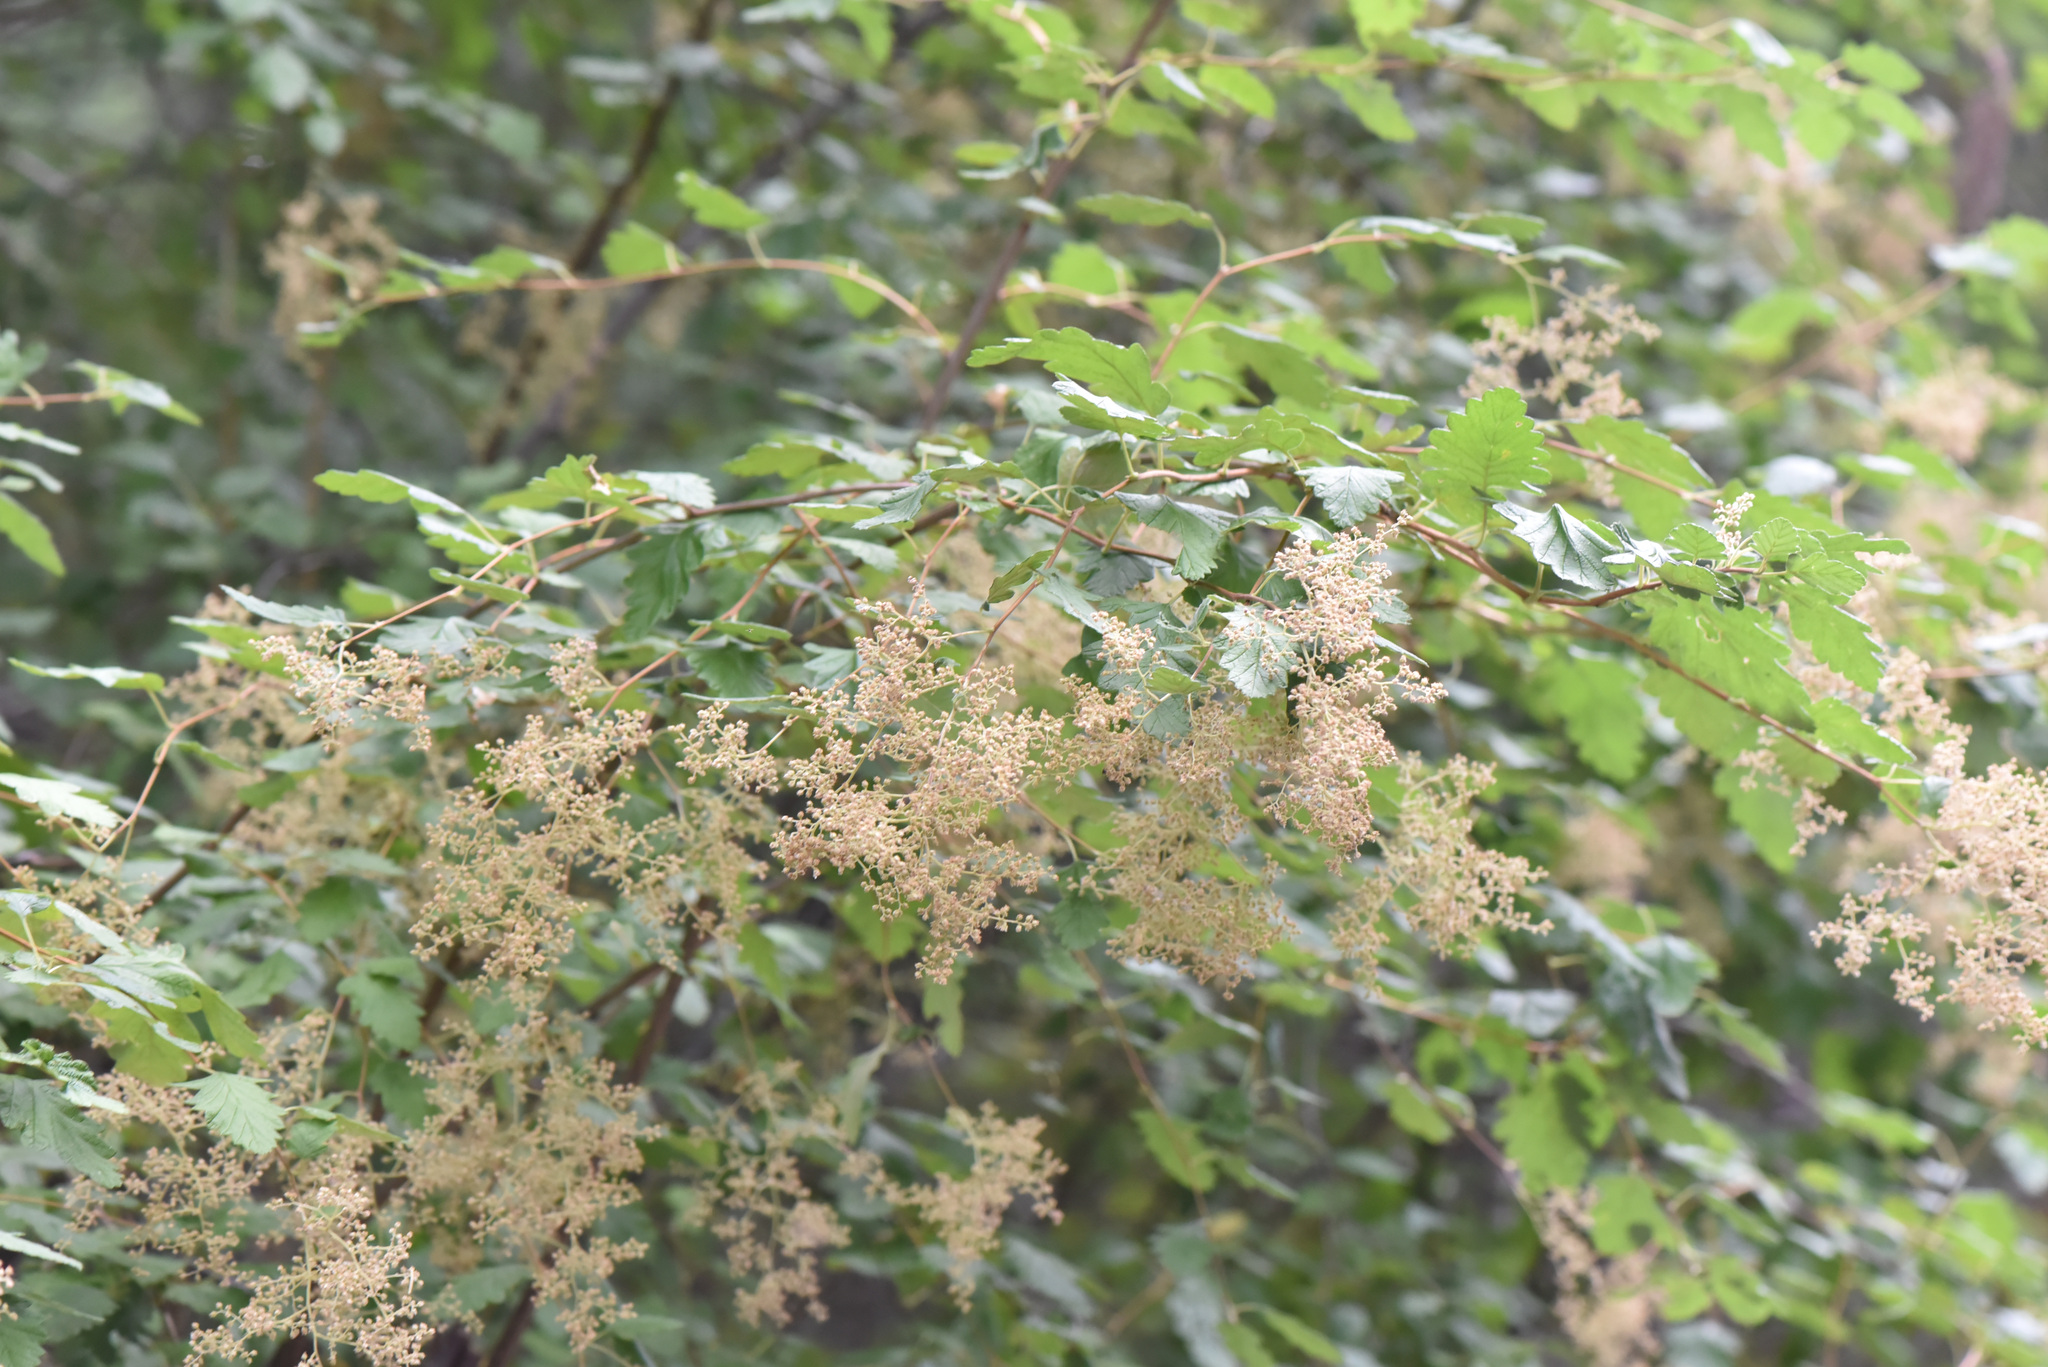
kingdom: Plantae
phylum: Tracheophyta
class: Magnoliopsida
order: Rosales
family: Rosaceae
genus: Holodiscus
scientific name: Holodiscus discolor
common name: Oceanspray
